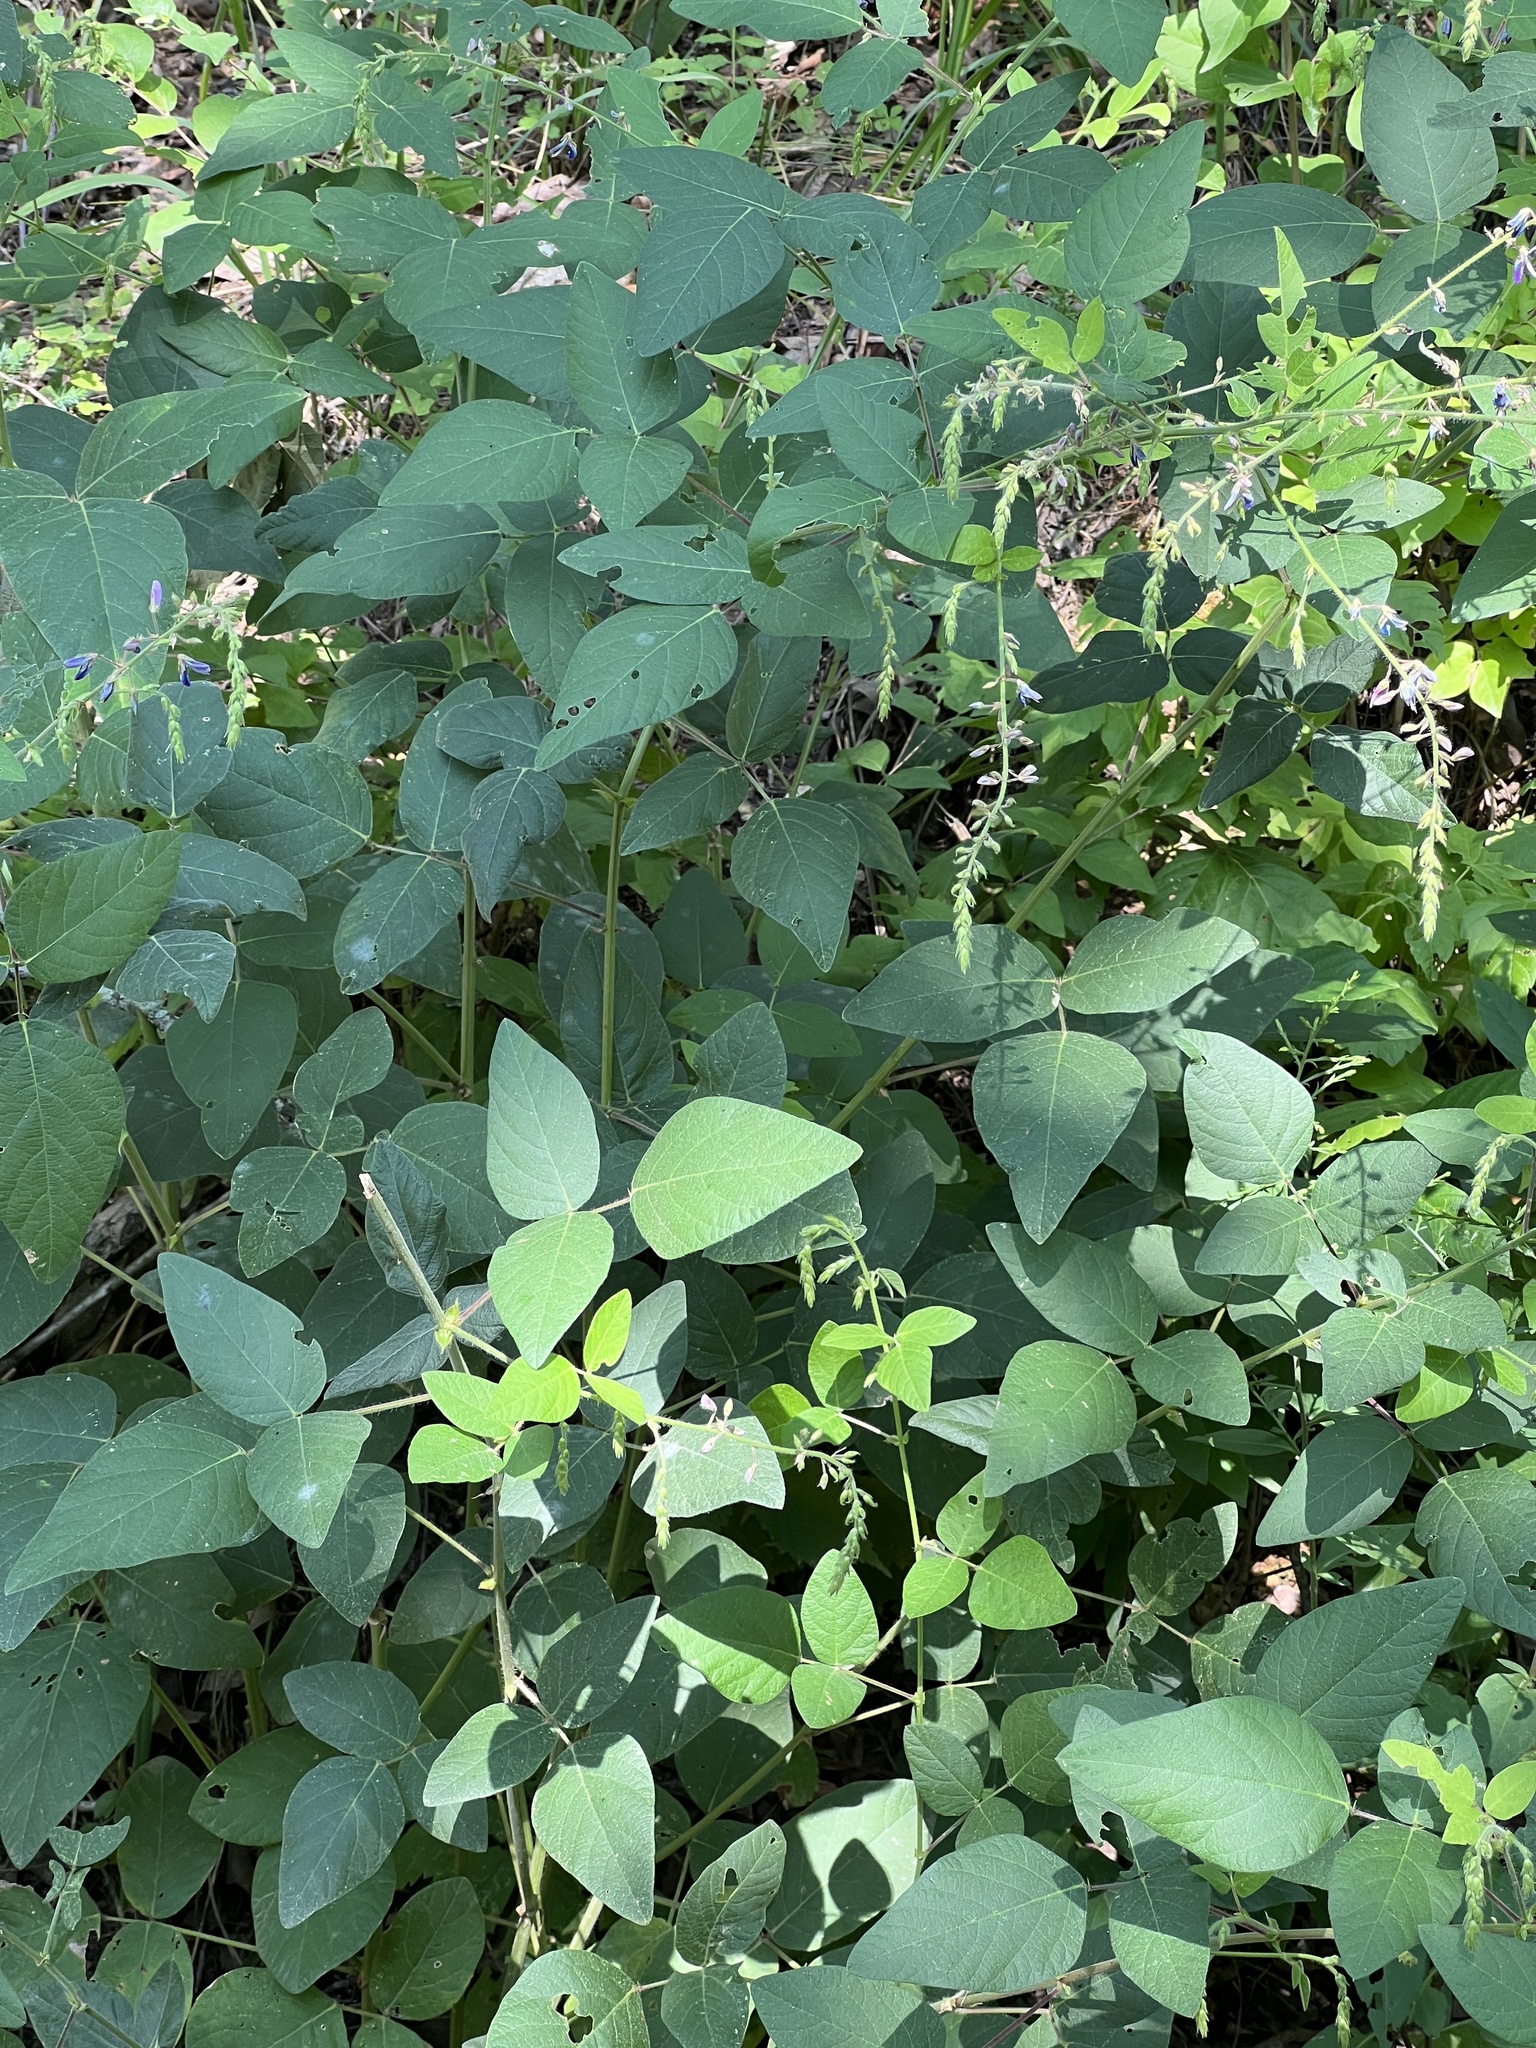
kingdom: Plantae
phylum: Tracheophyta
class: Magnoliopsida
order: Fabales
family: Fabaceae
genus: Desmodium
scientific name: Desmodium canescens
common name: Hoary tick-clover
